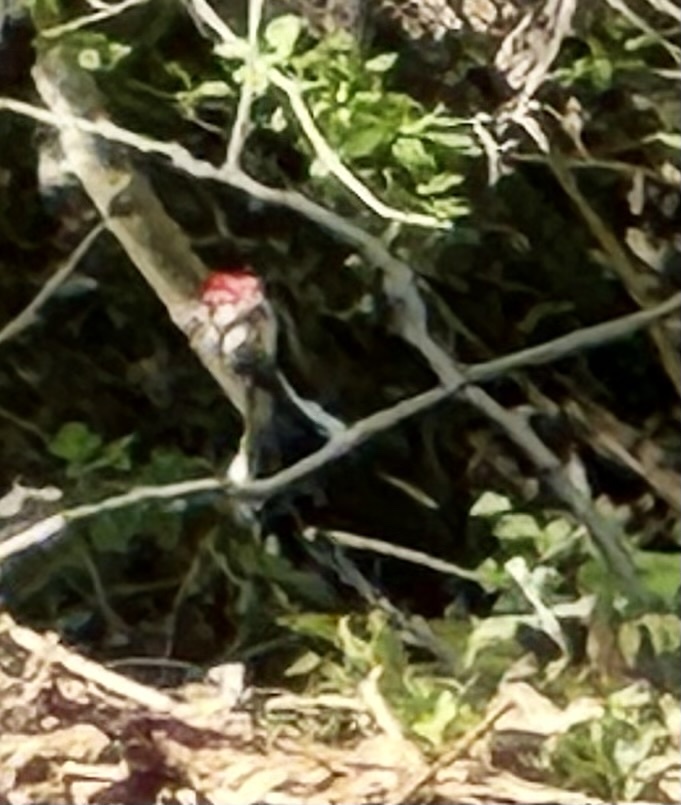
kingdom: Animalia
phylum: Chordata
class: Aves
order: Piciformes
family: Picidae
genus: Dryocopus
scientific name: Dryocopus pileatus
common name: Pileated woodpecker
